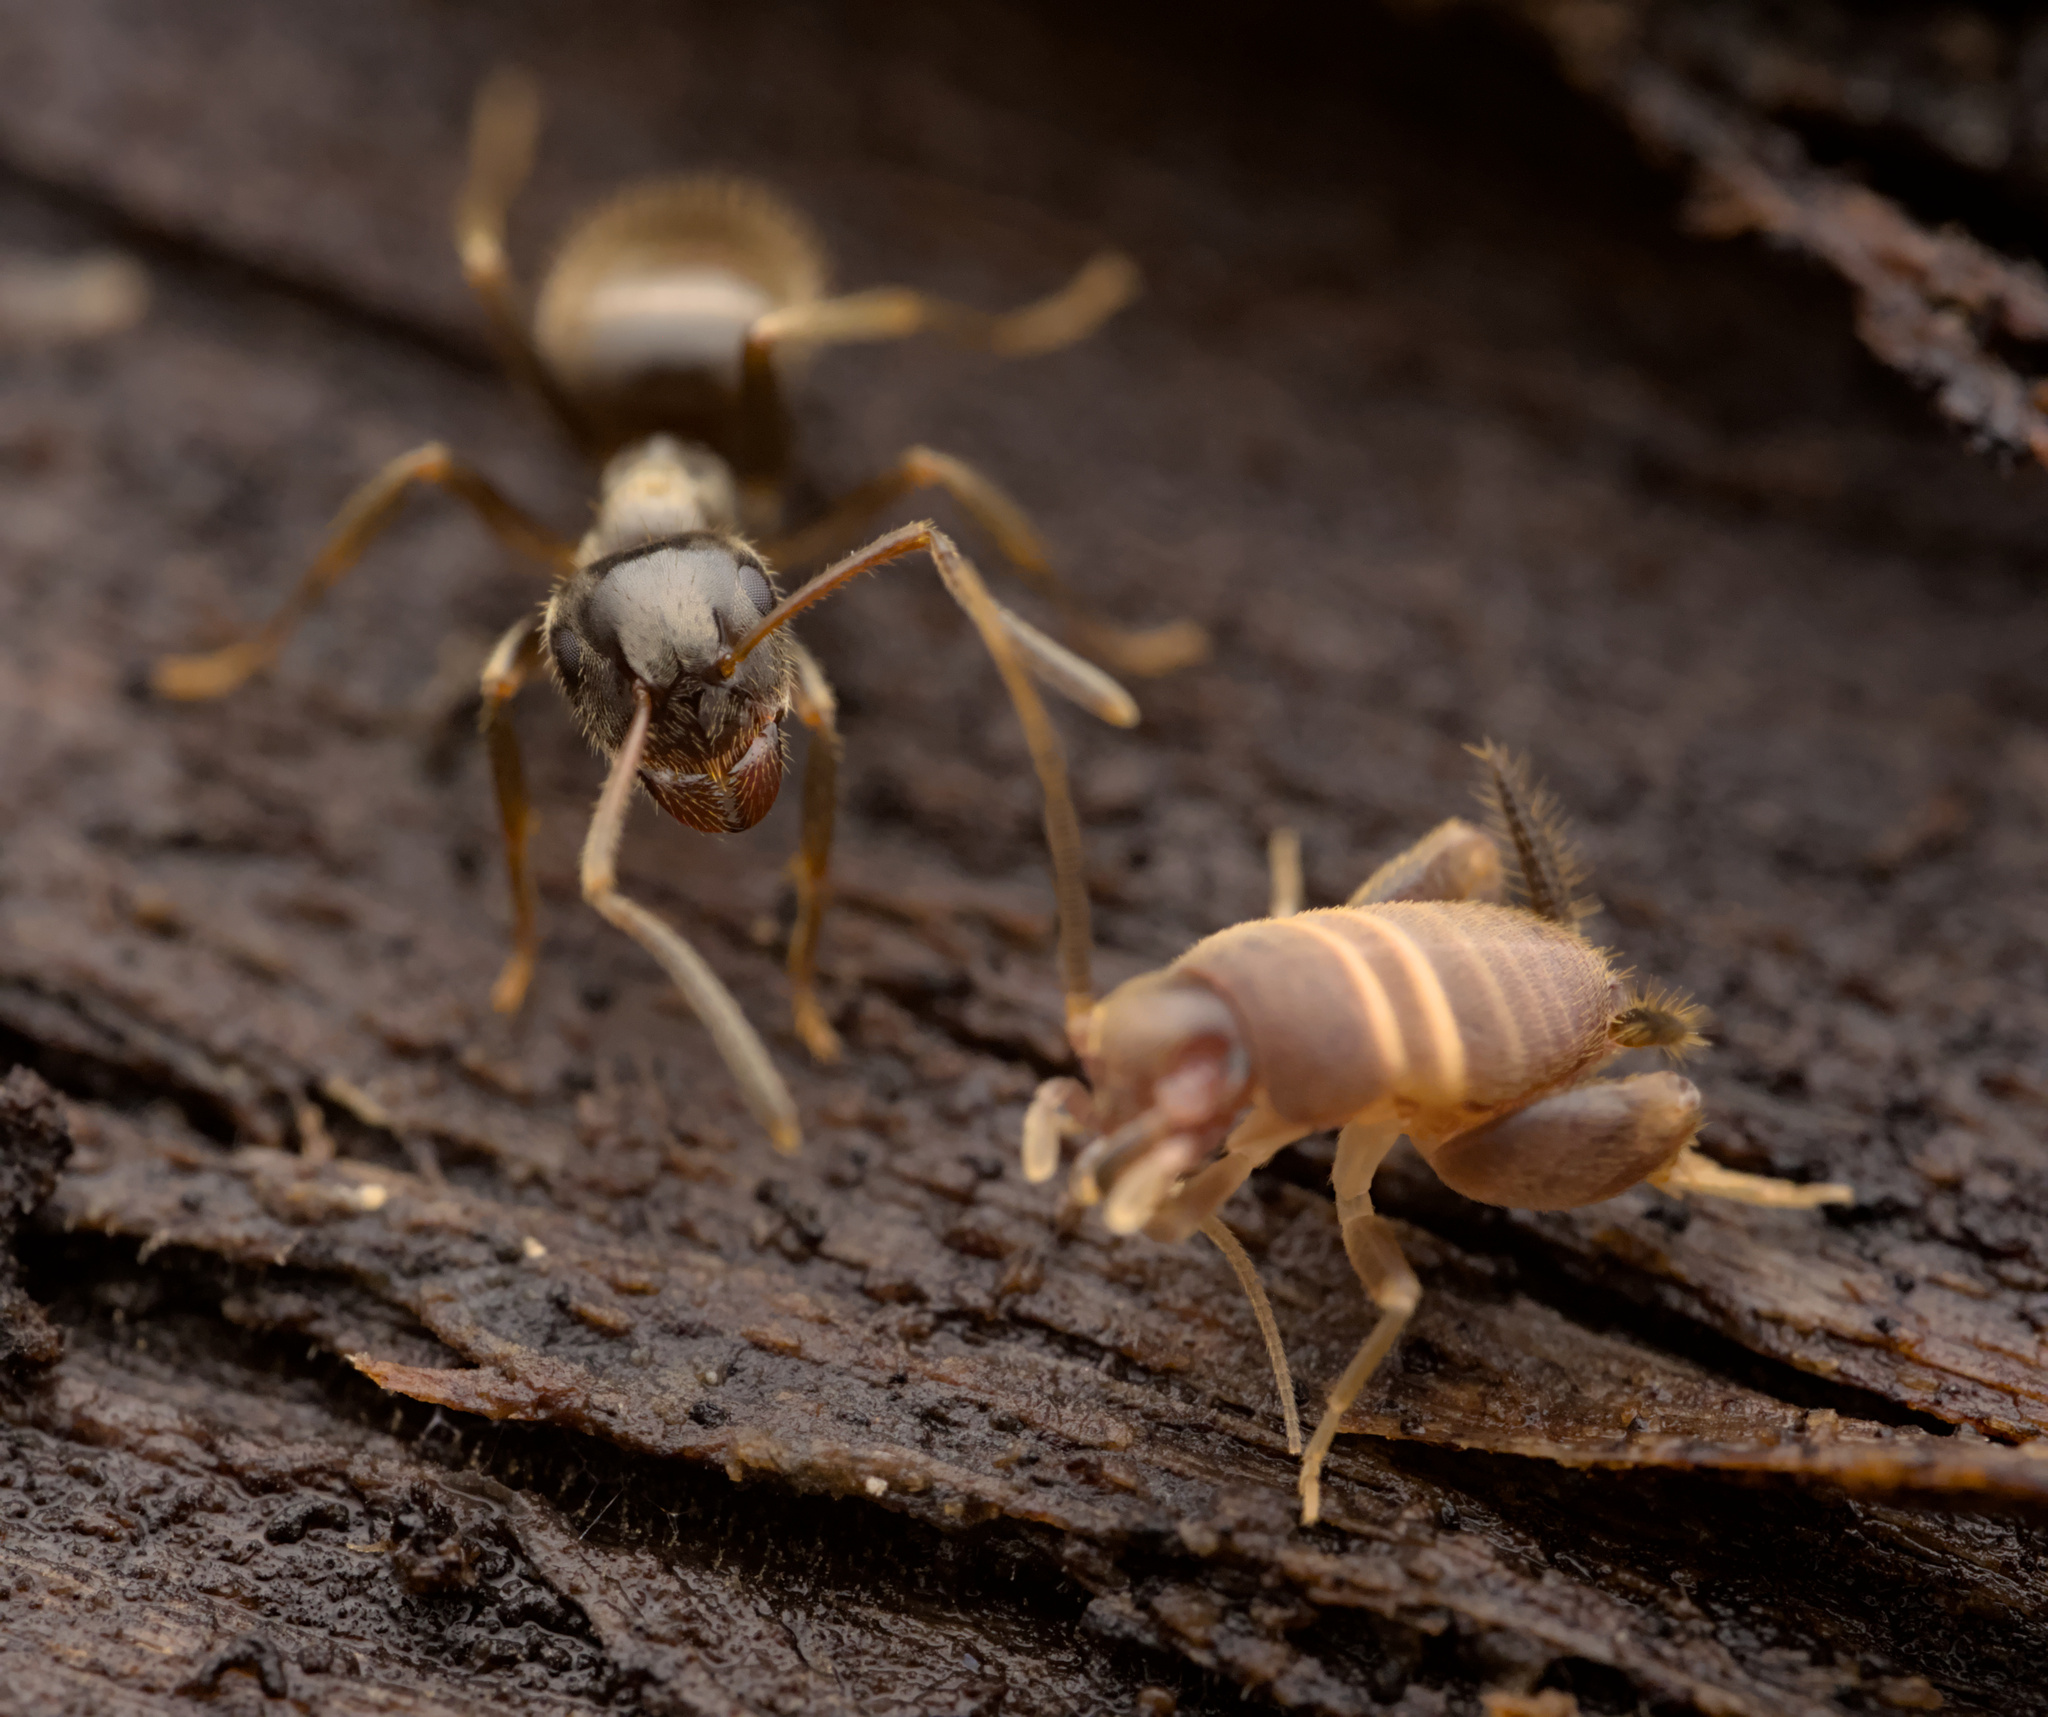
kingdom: Animalia
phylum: Arthropoda
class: Insecta
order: Orthoptera
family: Myrmecophilidae
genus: Myrmecophilus
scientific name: Myrmecophilus acervorum
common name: Ants-nest cricket
